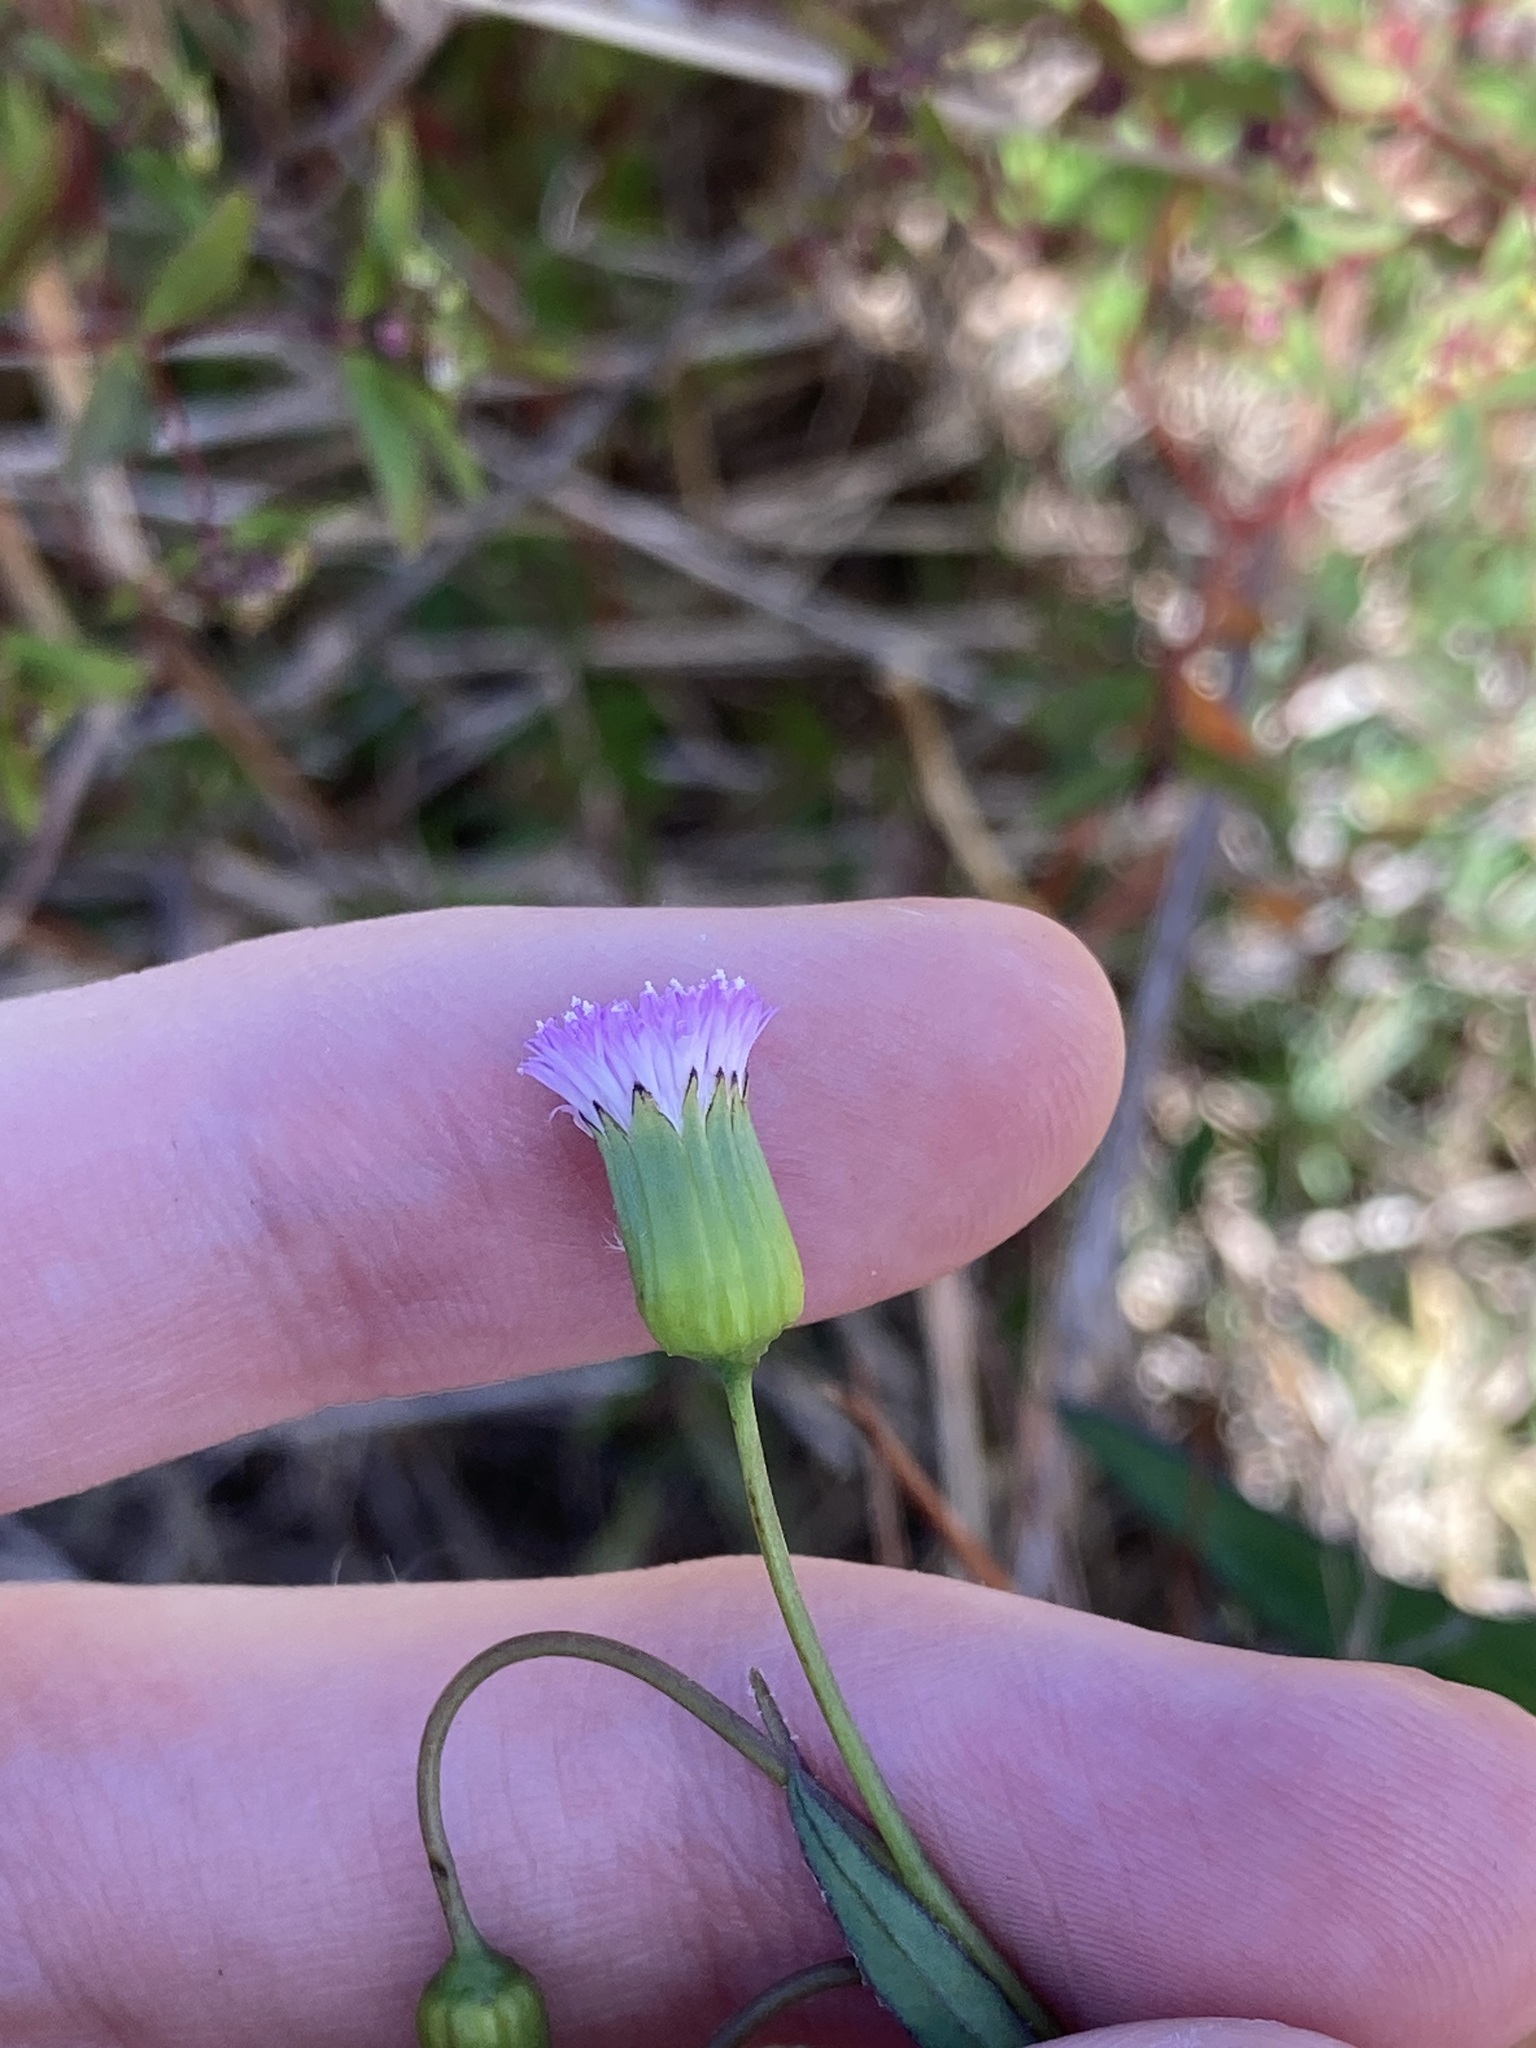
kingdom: Plantae
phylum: Tracheophyta
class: Magnoliopsida
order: Asterales
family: Asteraceae
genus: Emilia
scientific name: Emilia javanica
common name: Tassel-flower
